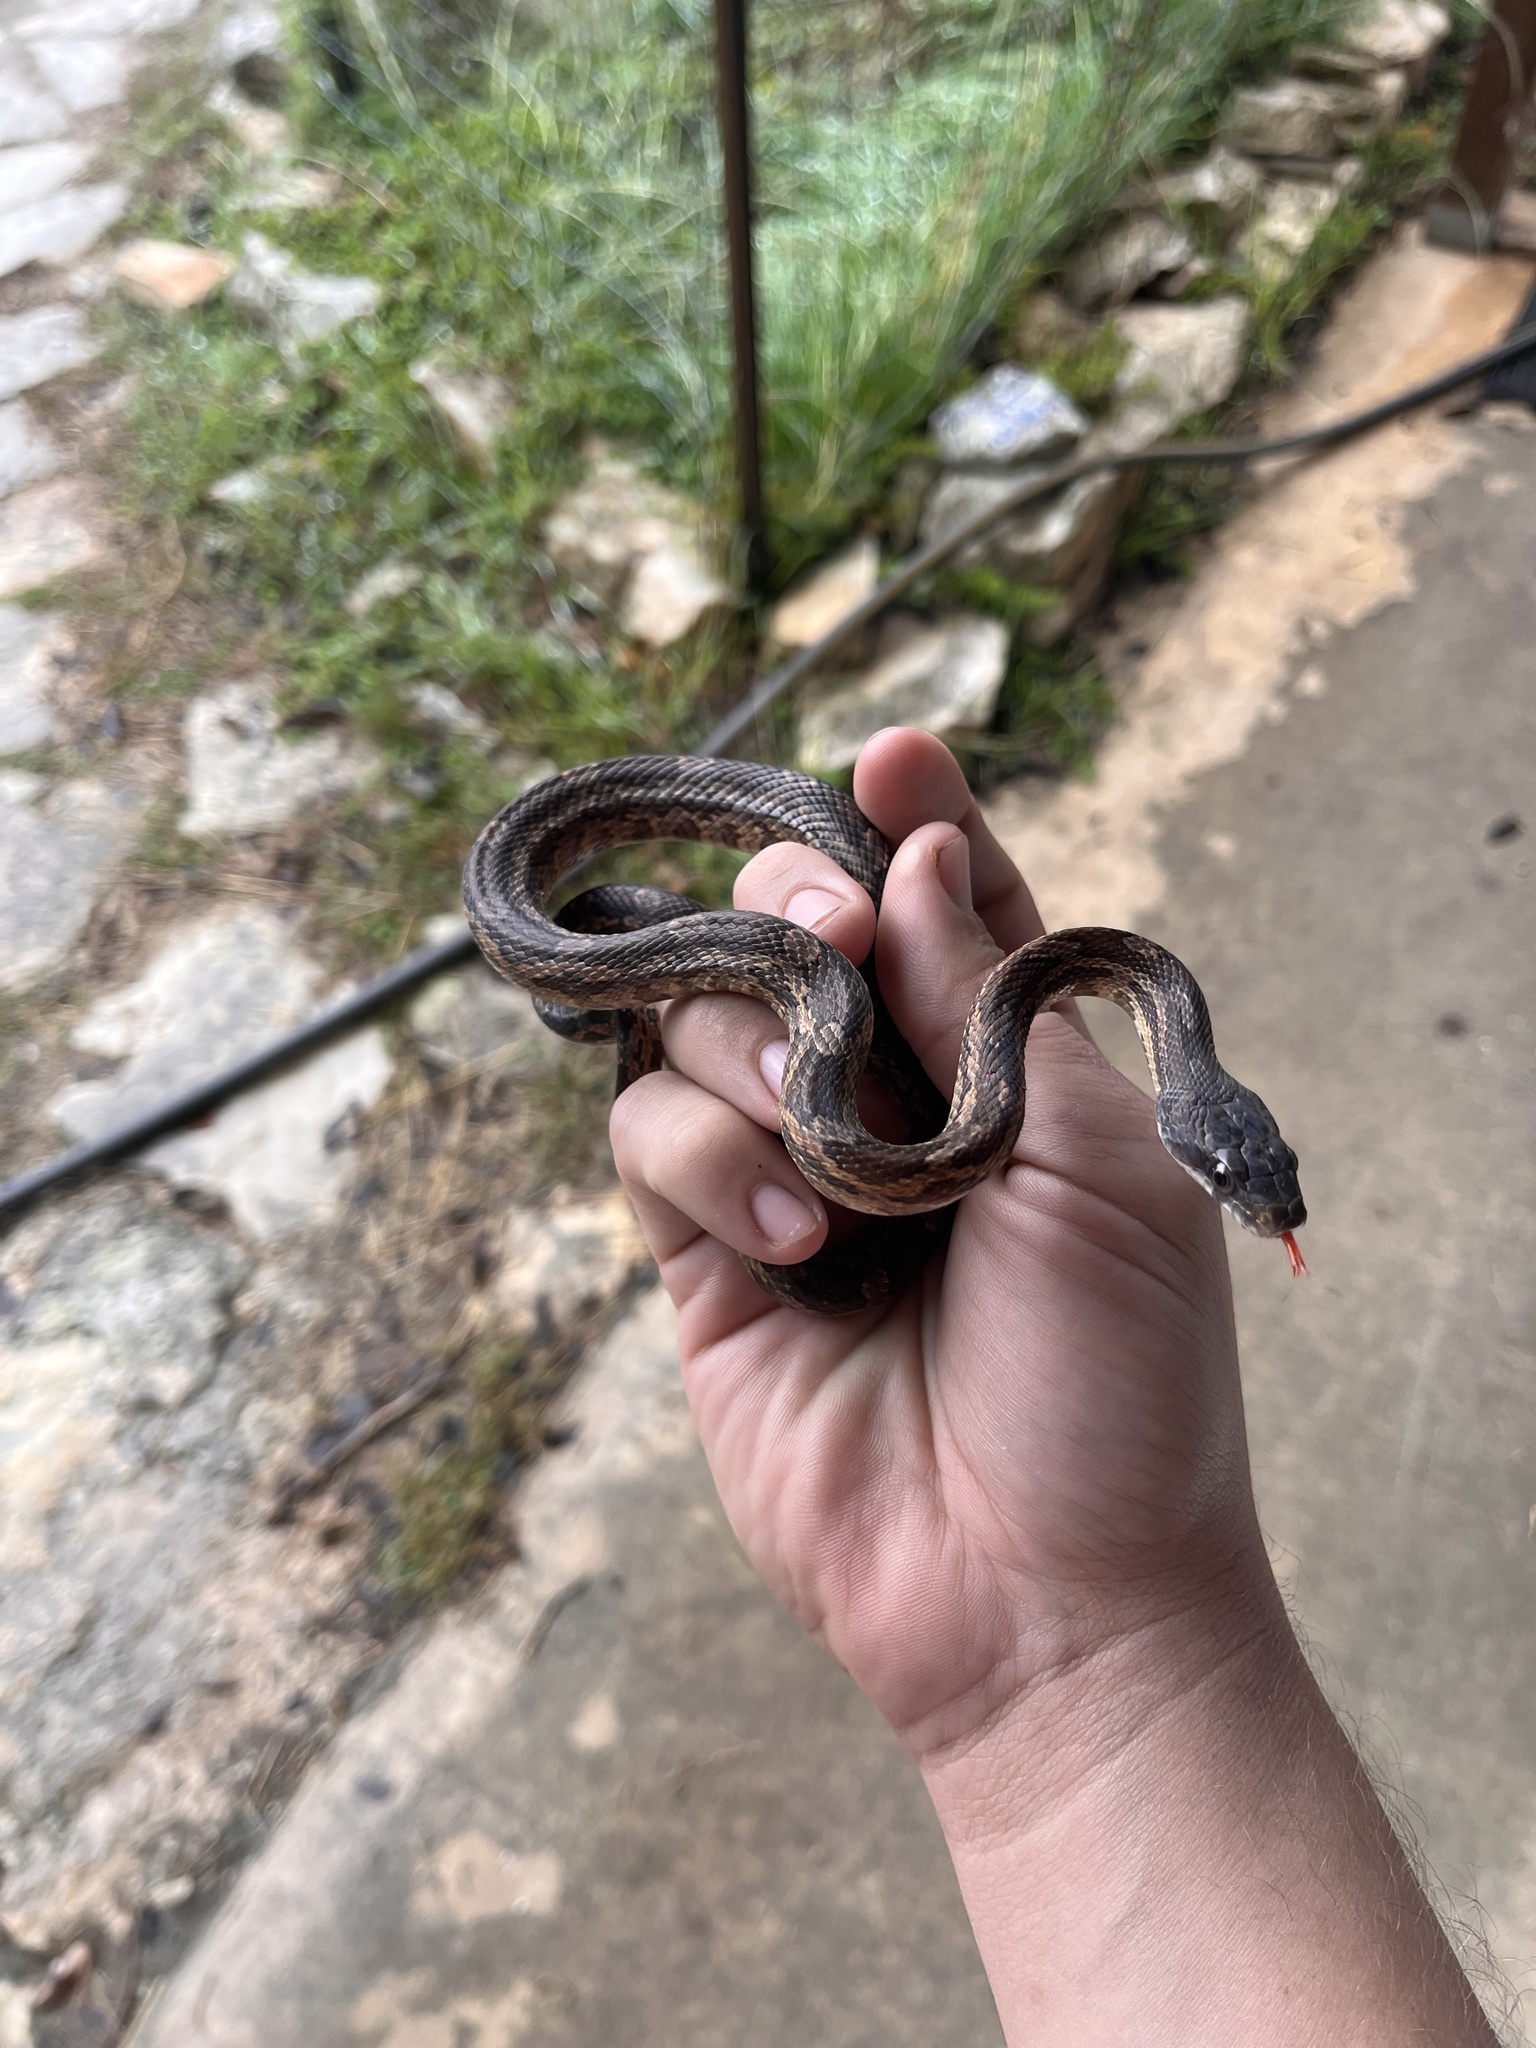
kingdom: Animalia
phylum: Chordata
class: Squamata
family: Colubridae
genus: Pantherophis
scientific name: Pantherophis obsoletus
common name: Black rat snake
